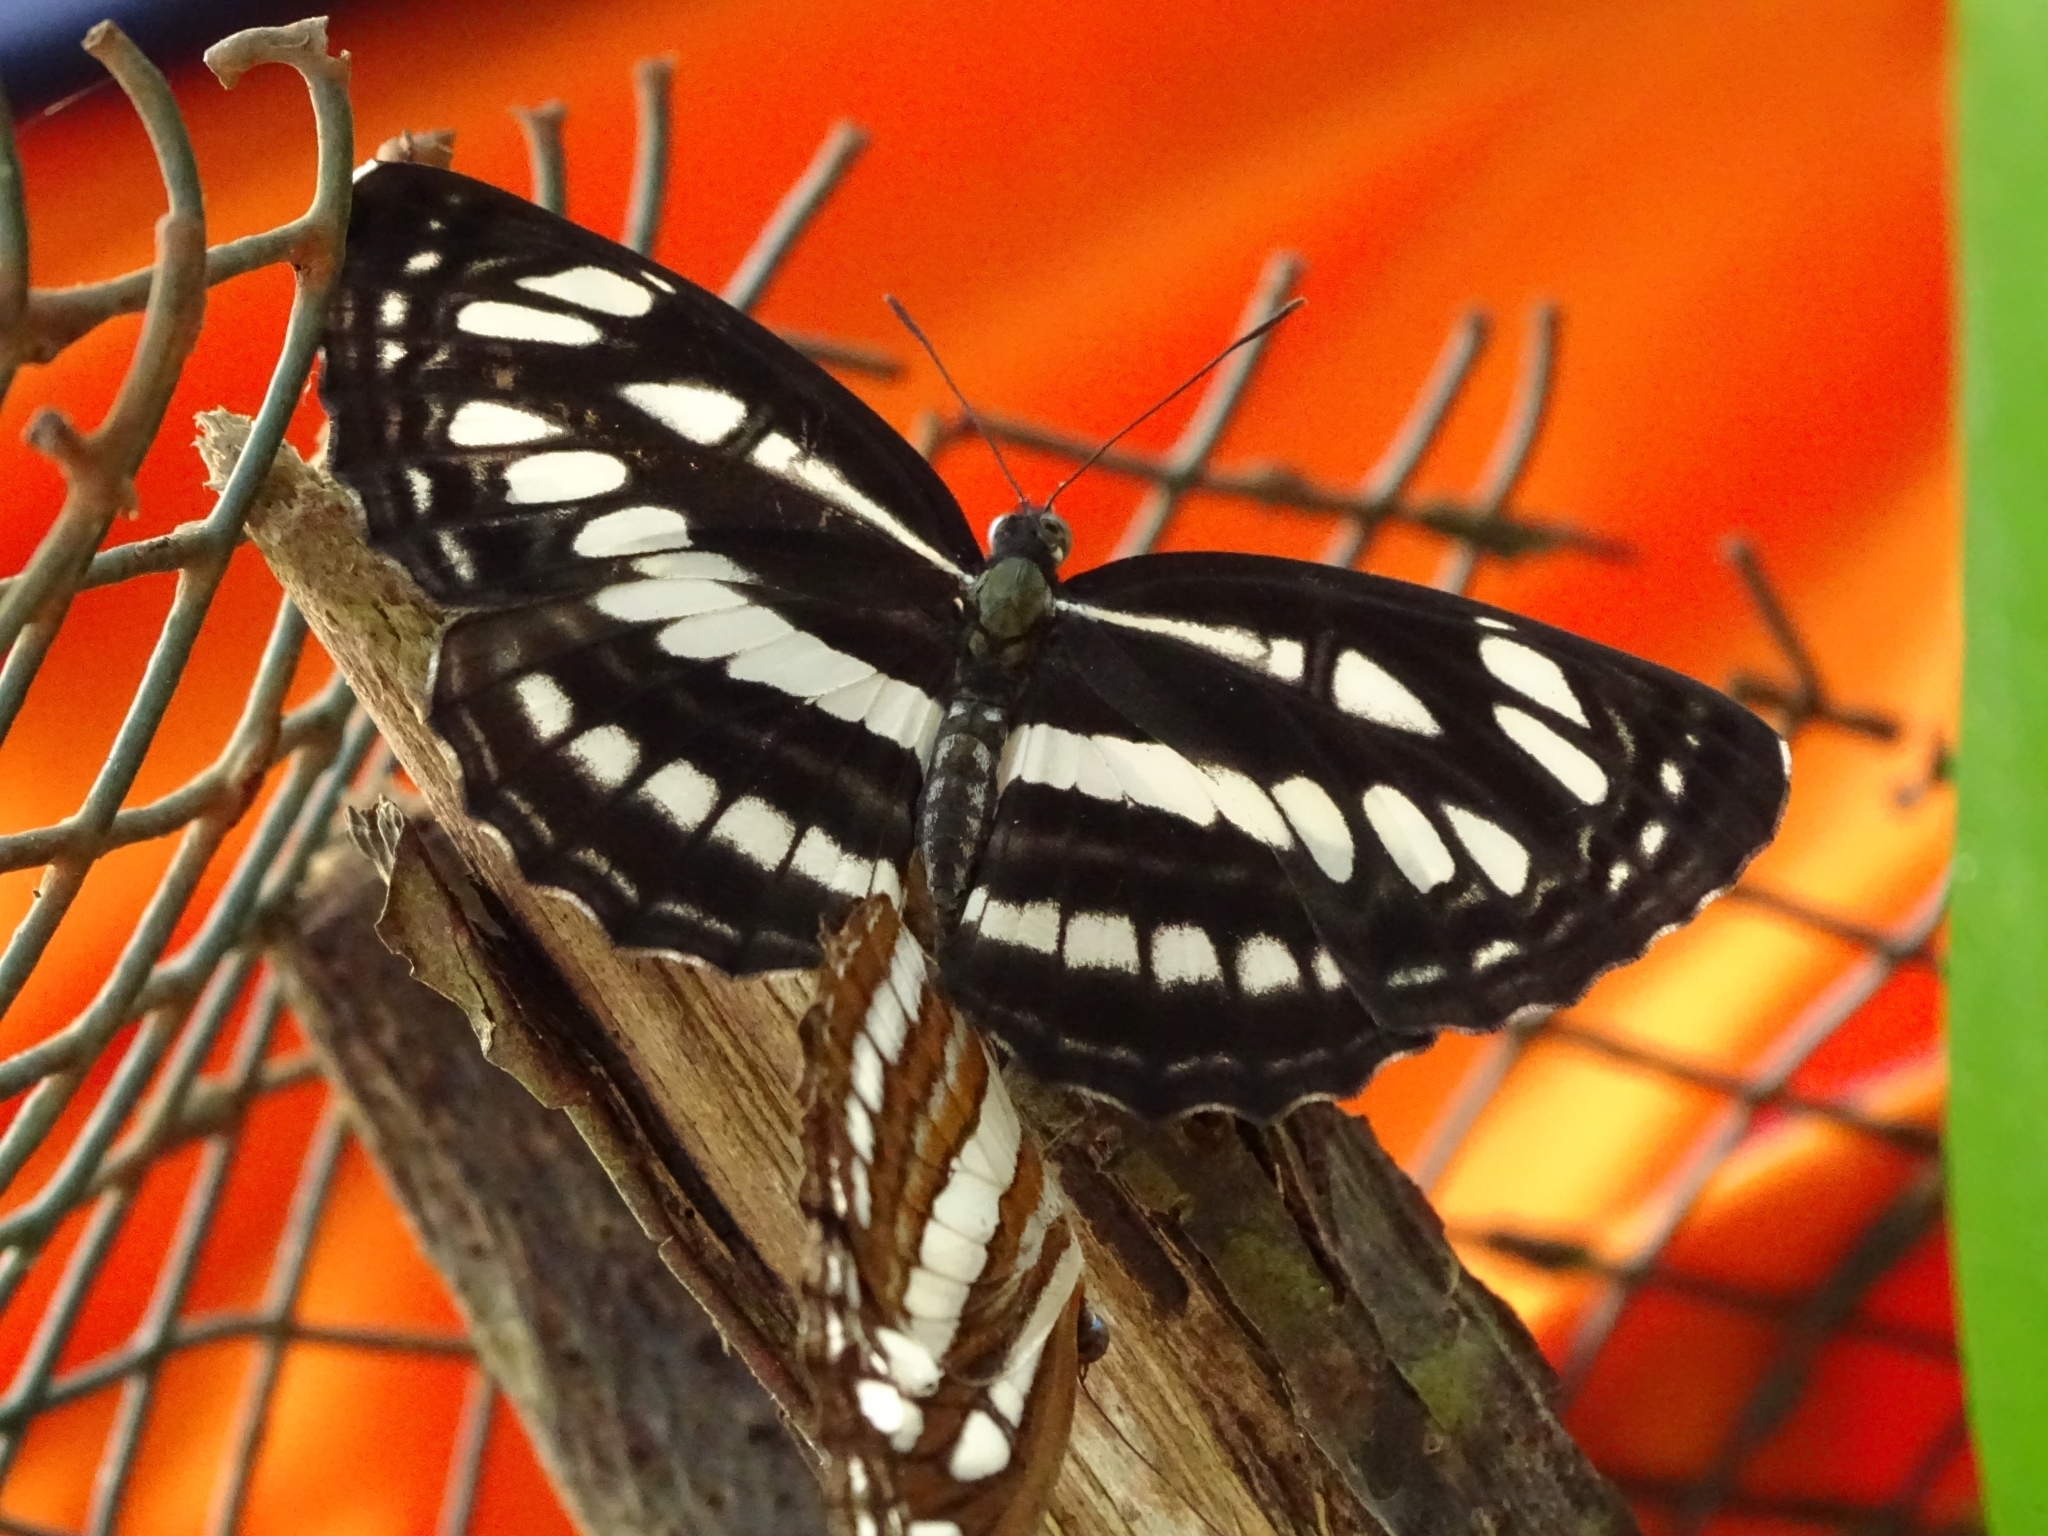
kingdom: Animalia
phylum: Arthropoda
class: Insecta
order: Lepidoptera
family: Nymphalidae
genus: Neptis
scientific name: Neptis hylas
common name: Common sailer
